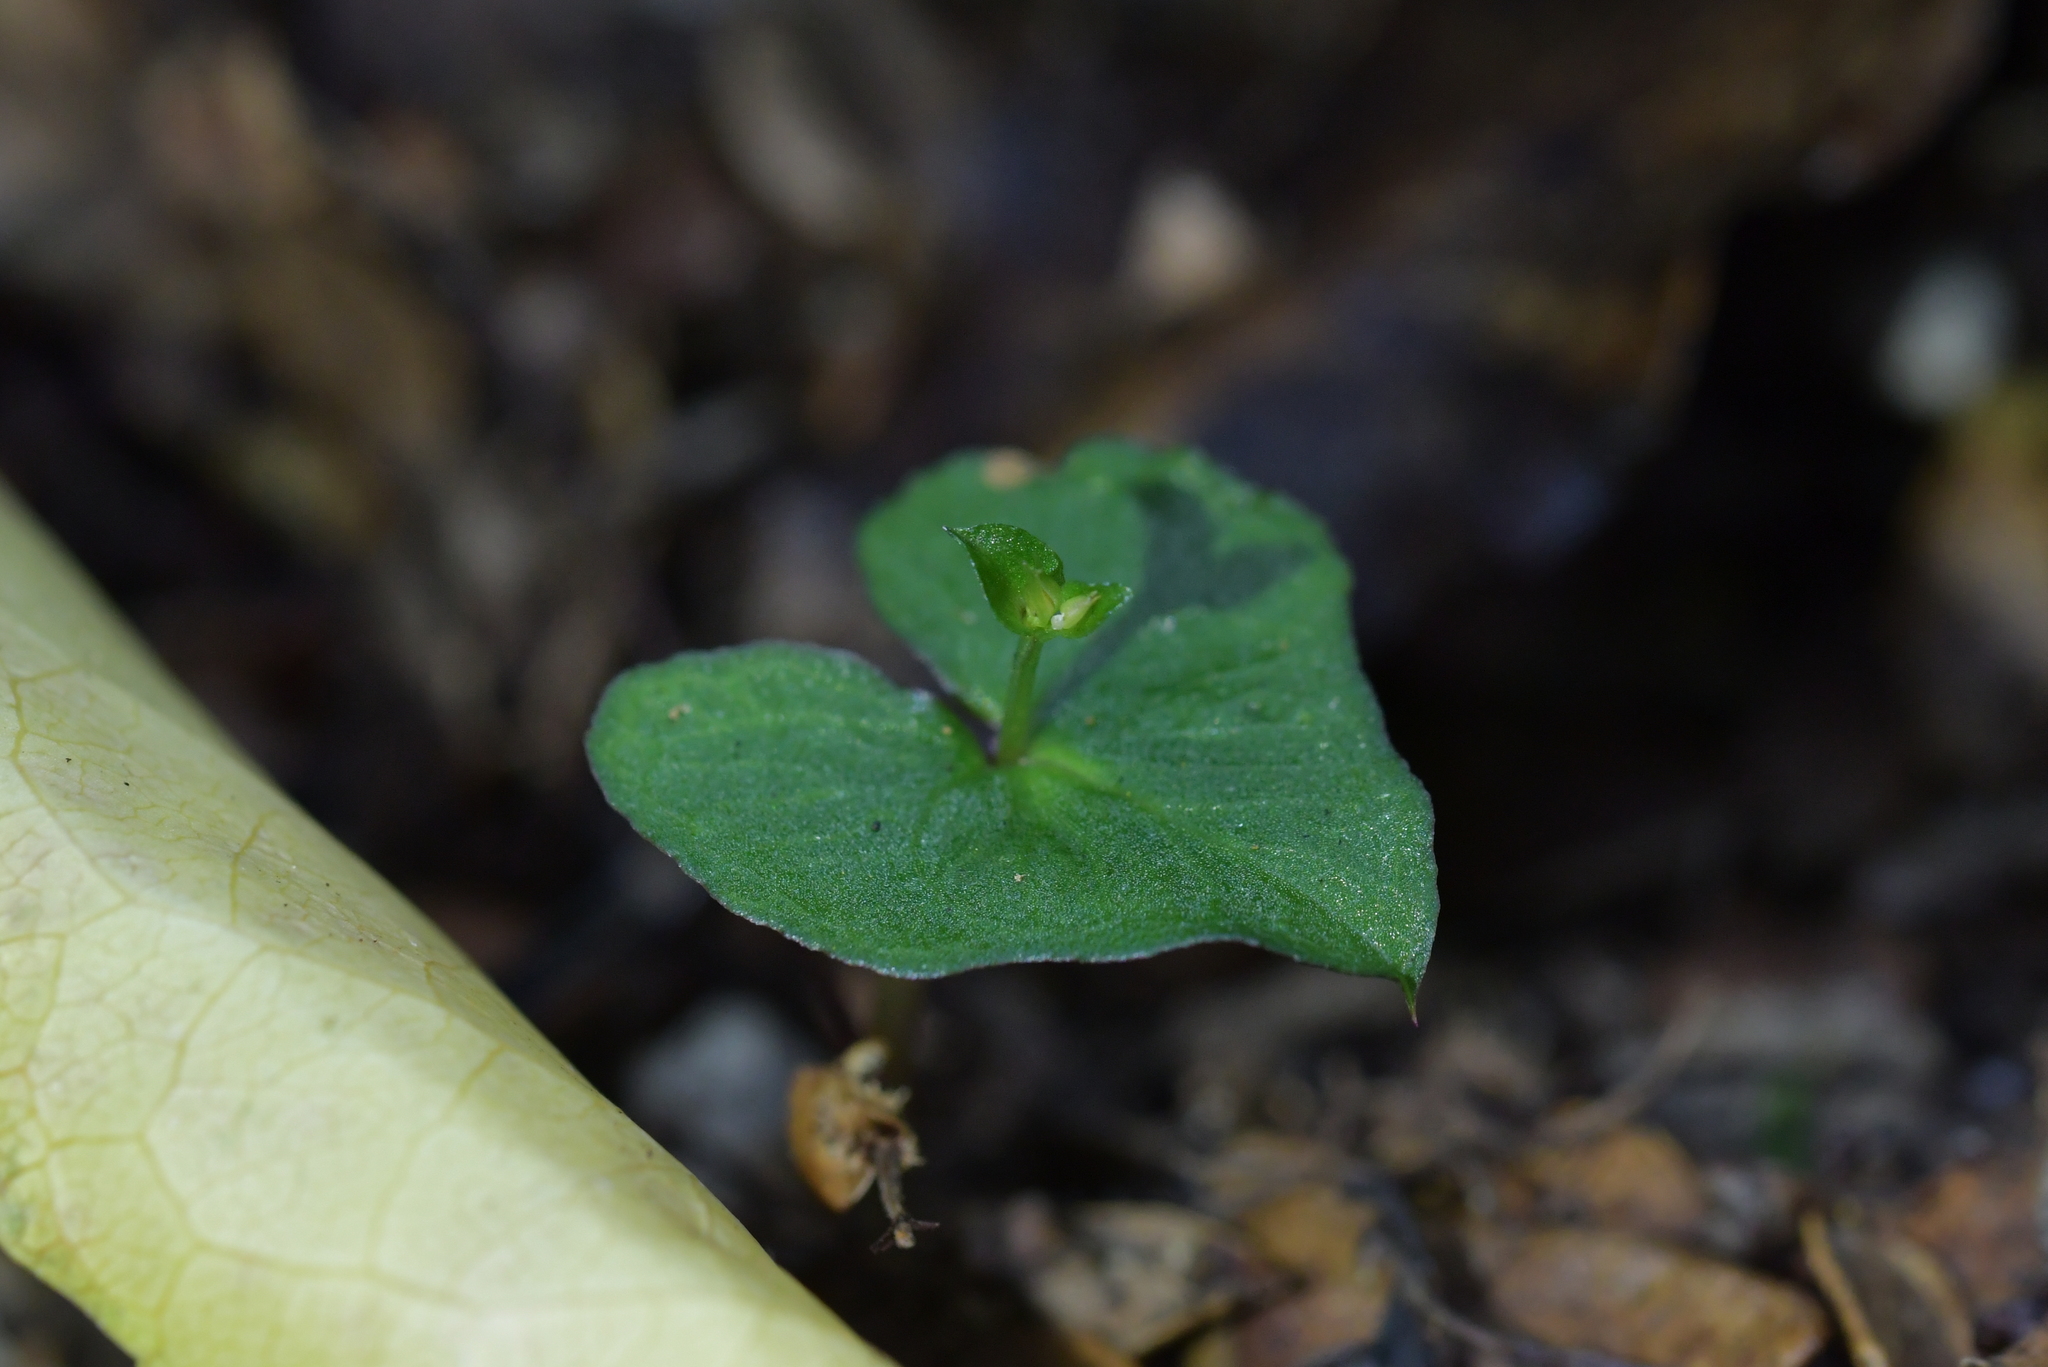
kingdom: Plantae
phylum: Tracheophyta
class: Liliopsida
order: Asparagales
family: Orchidaceae
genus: Acianthus
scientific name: Acianthus sinclairii
